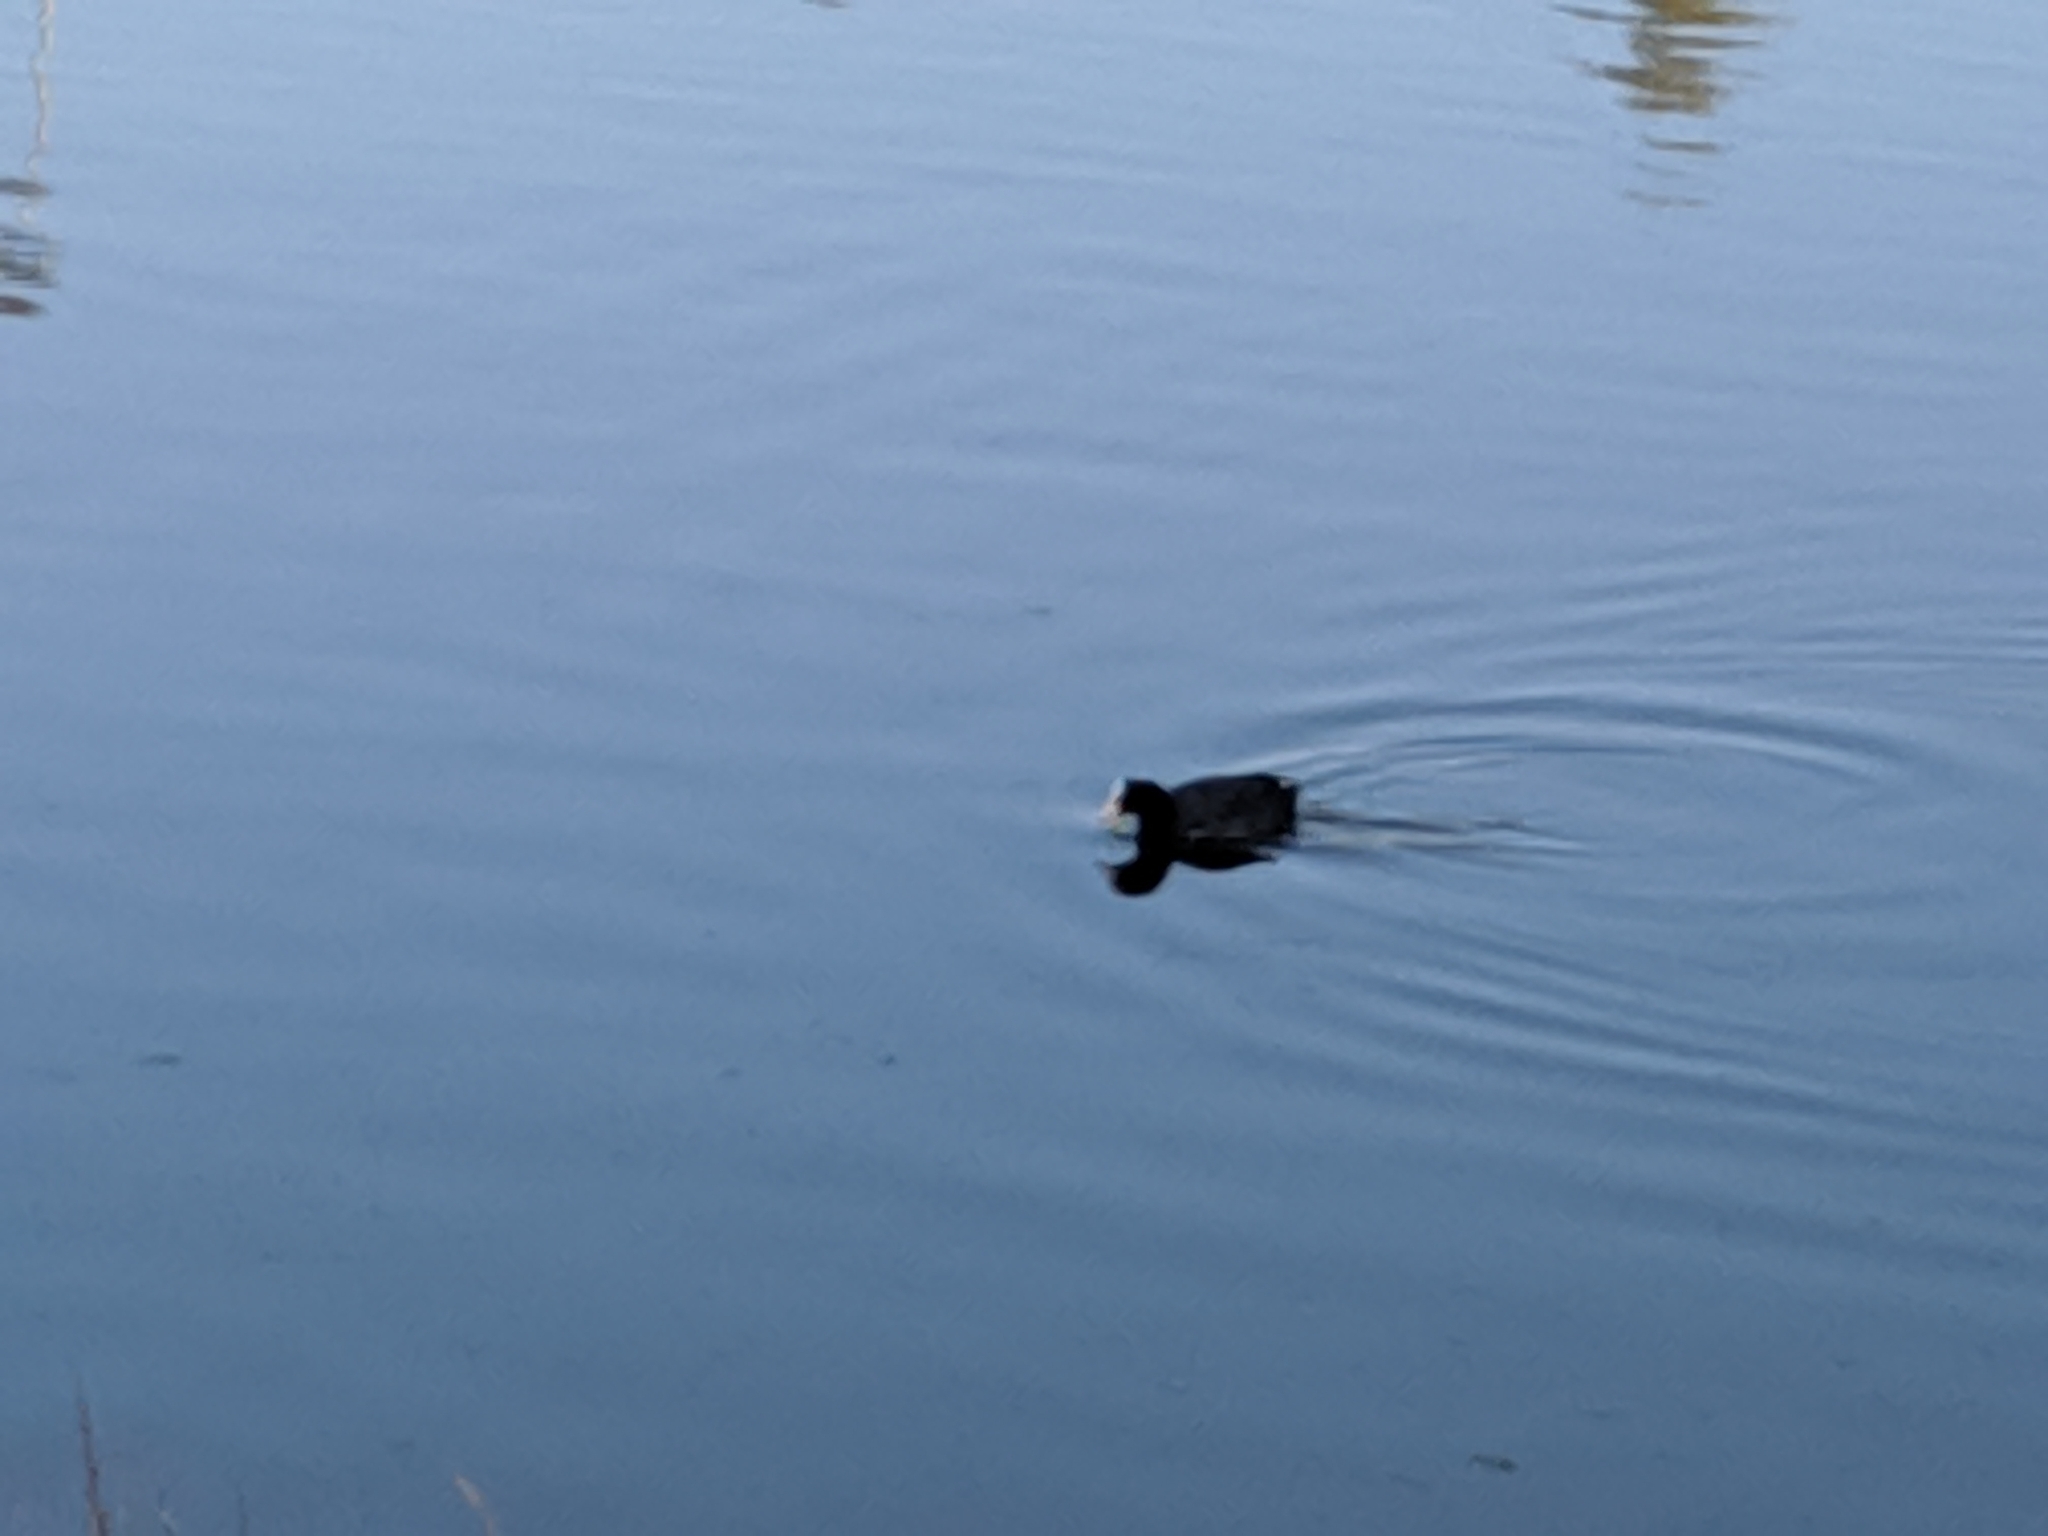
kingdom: Animalia
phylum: Chordata
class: Aves
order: Gruiformes
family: Rallidae
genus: Fulica
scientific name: Fulica atra
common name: Eurasian coot
